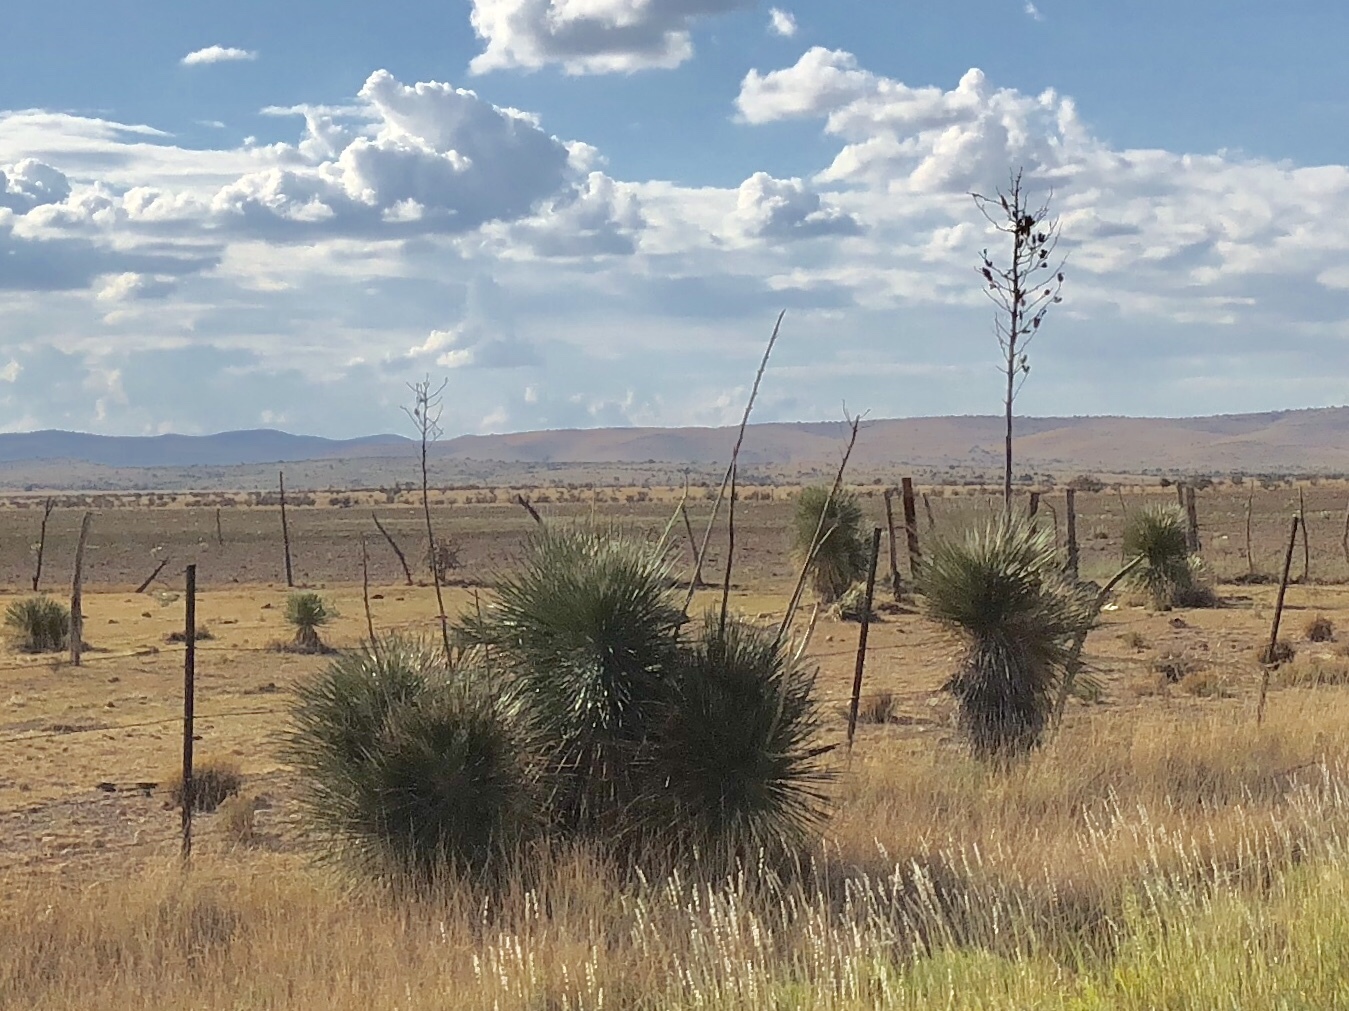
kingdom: Plantae
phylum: Tracheophyta
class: Liliopsida
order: Asparagales
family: Asparagaceae
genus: Yucca
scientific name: Yucca elata
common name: Palmella
